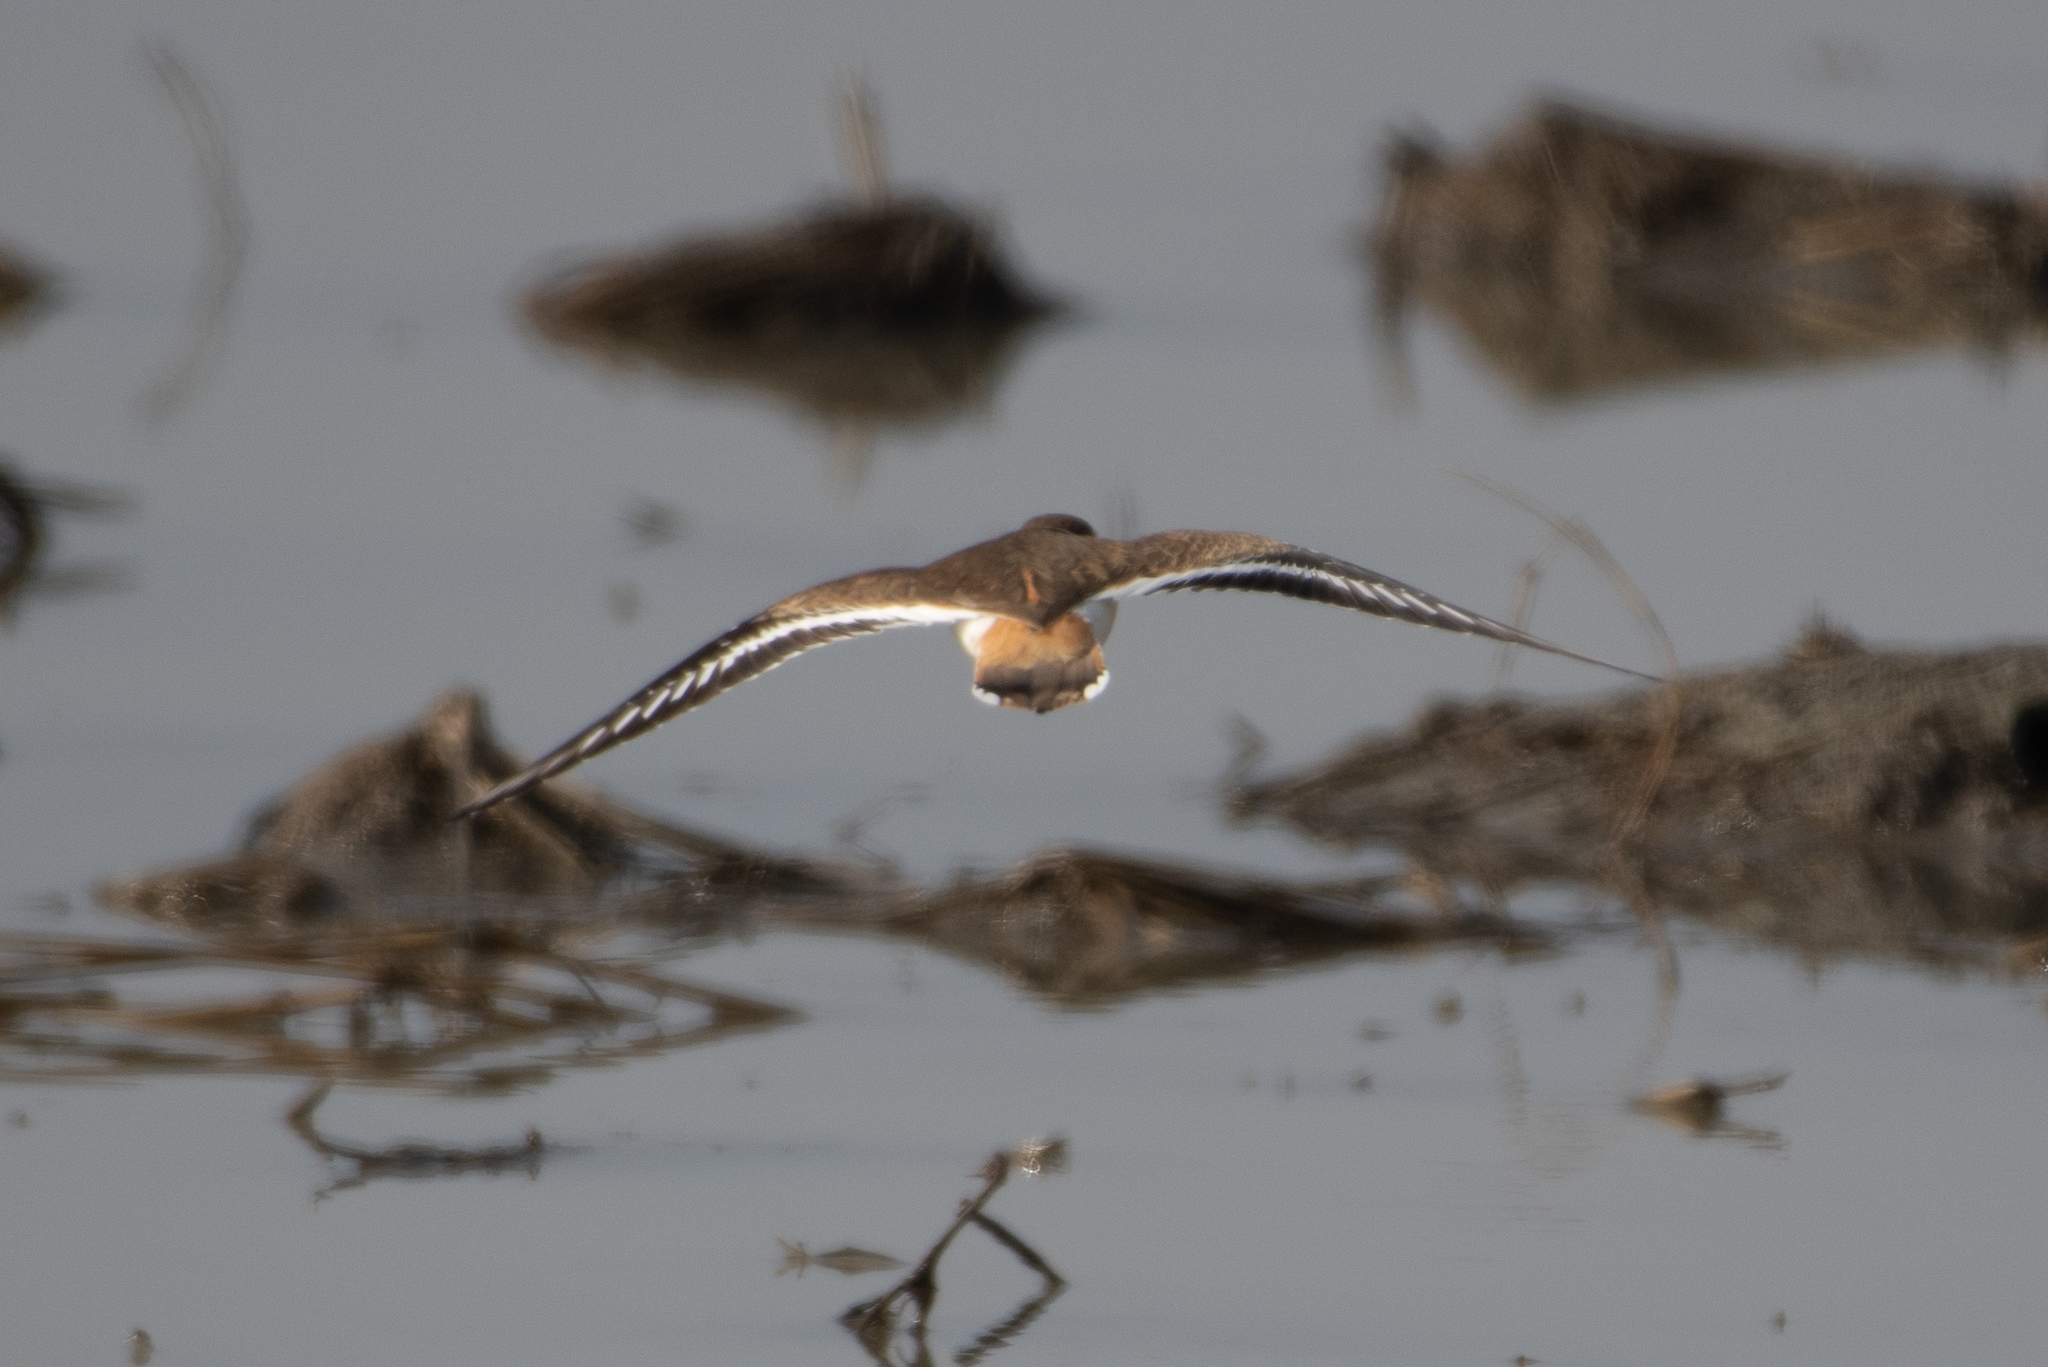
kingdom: Animalia
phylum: Chordata
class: Aves
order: Charadriiformes
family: Charadriidae
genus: Charadrius
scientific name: Charadrius vociferus
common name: Killdeer
